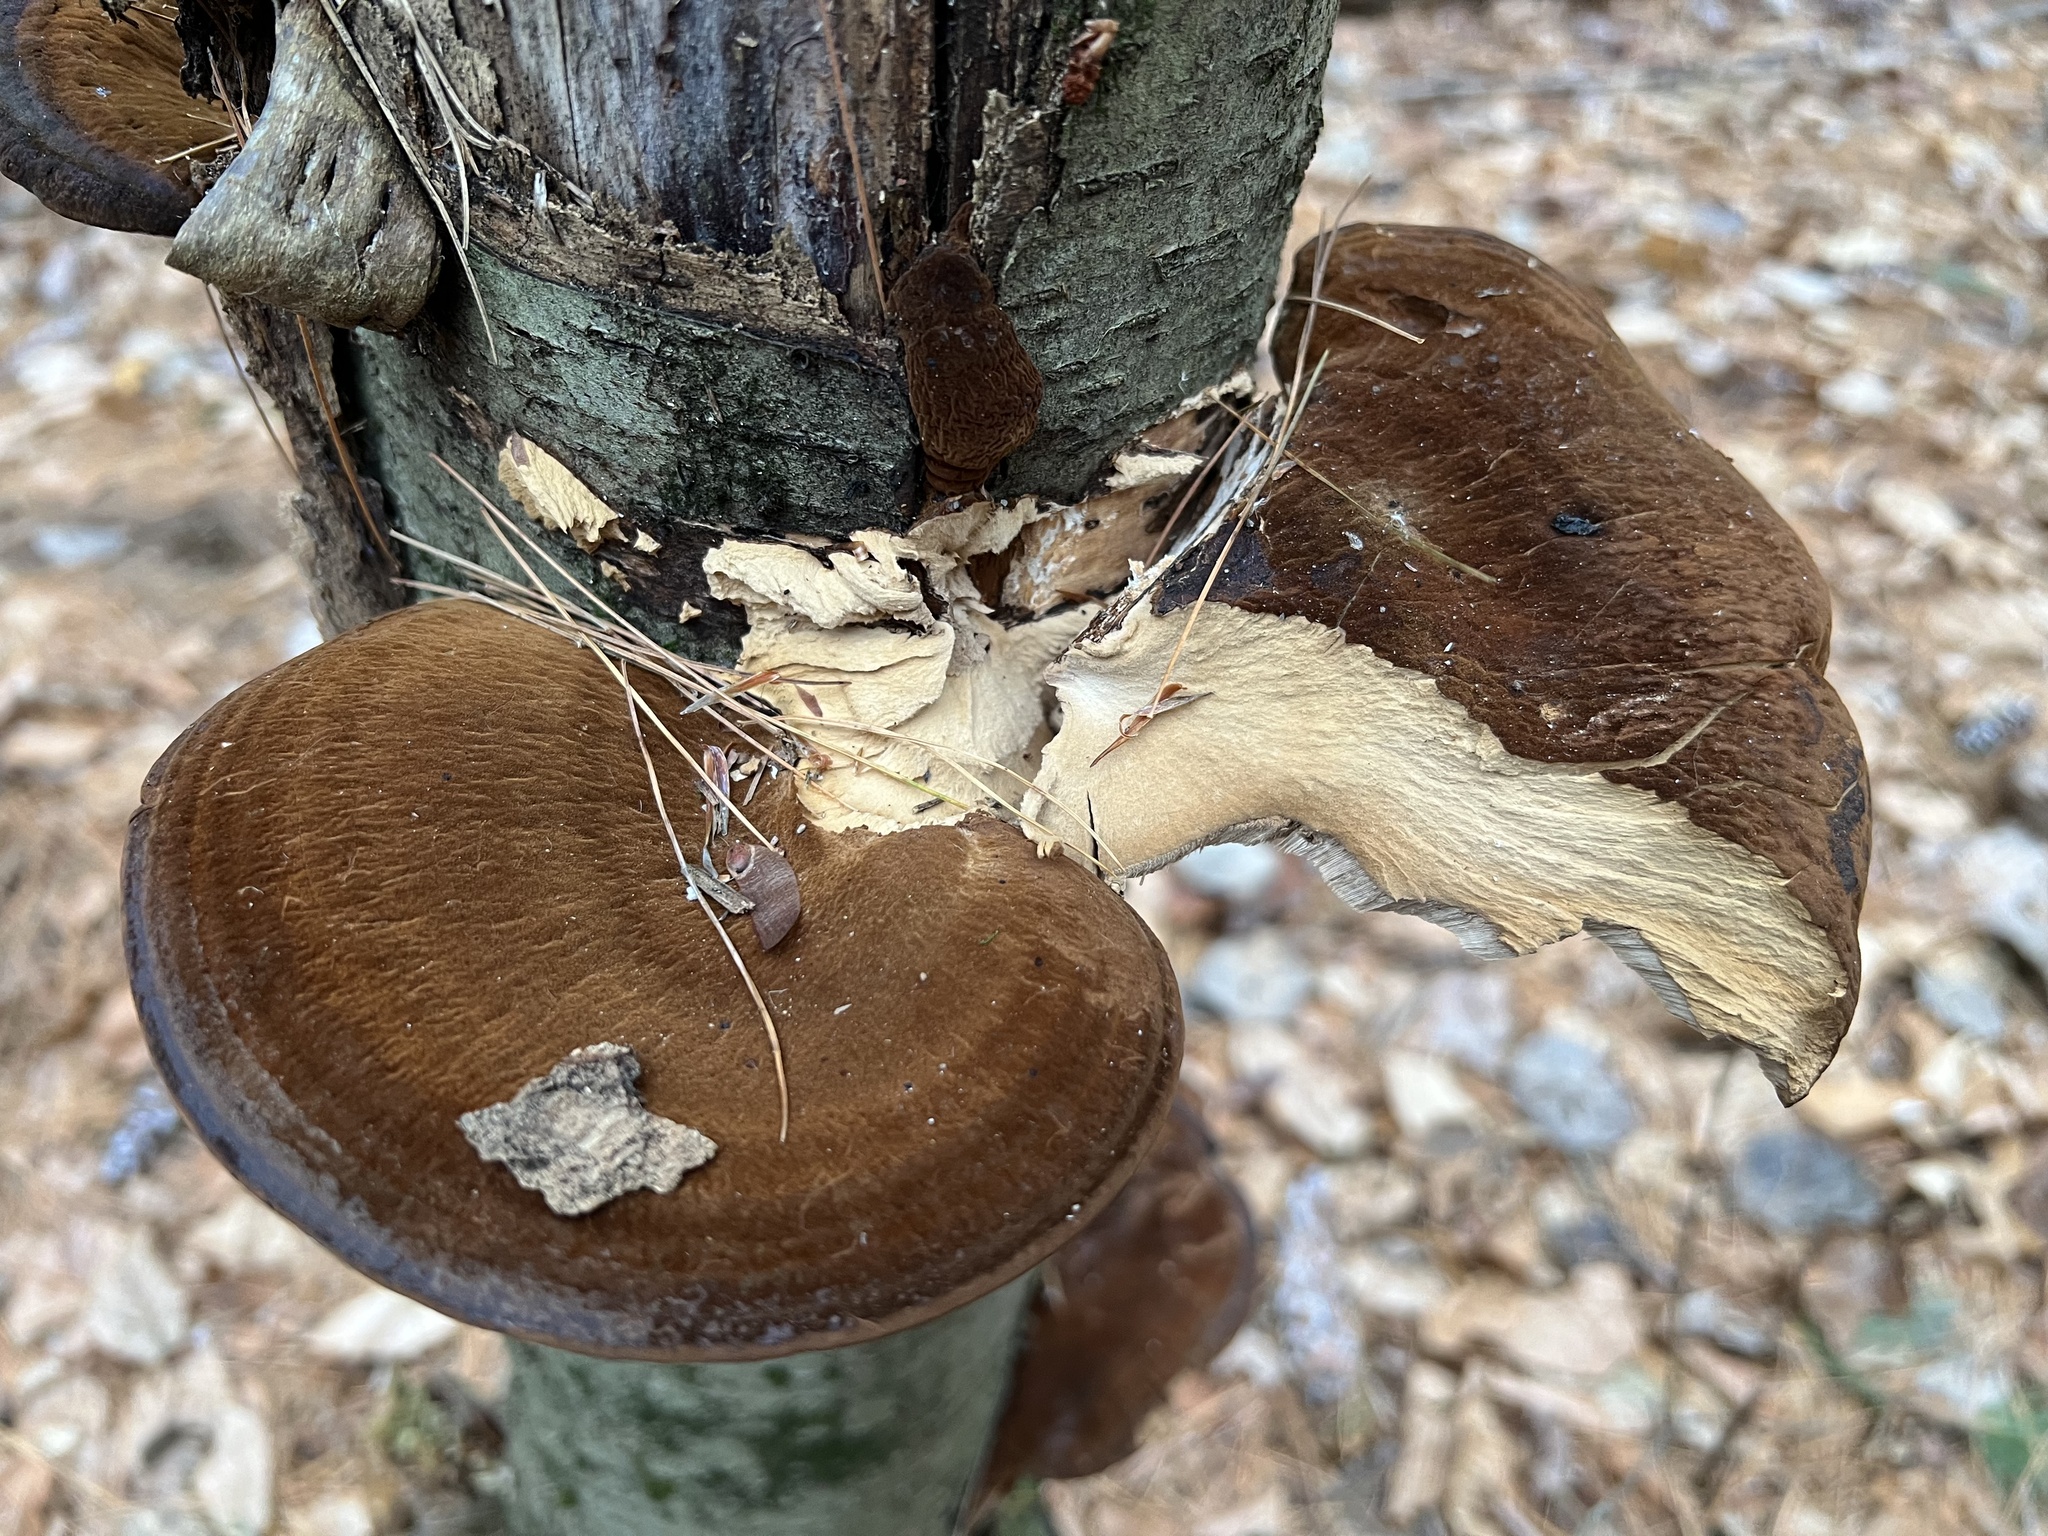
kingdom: Fungi
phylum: Basidiomycota
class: Agaricomycetes
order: Polyporales
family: Ischnodermataceae
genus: Ischnoderma
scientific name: Ischnoderma resinosum
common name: Resinous polypore
